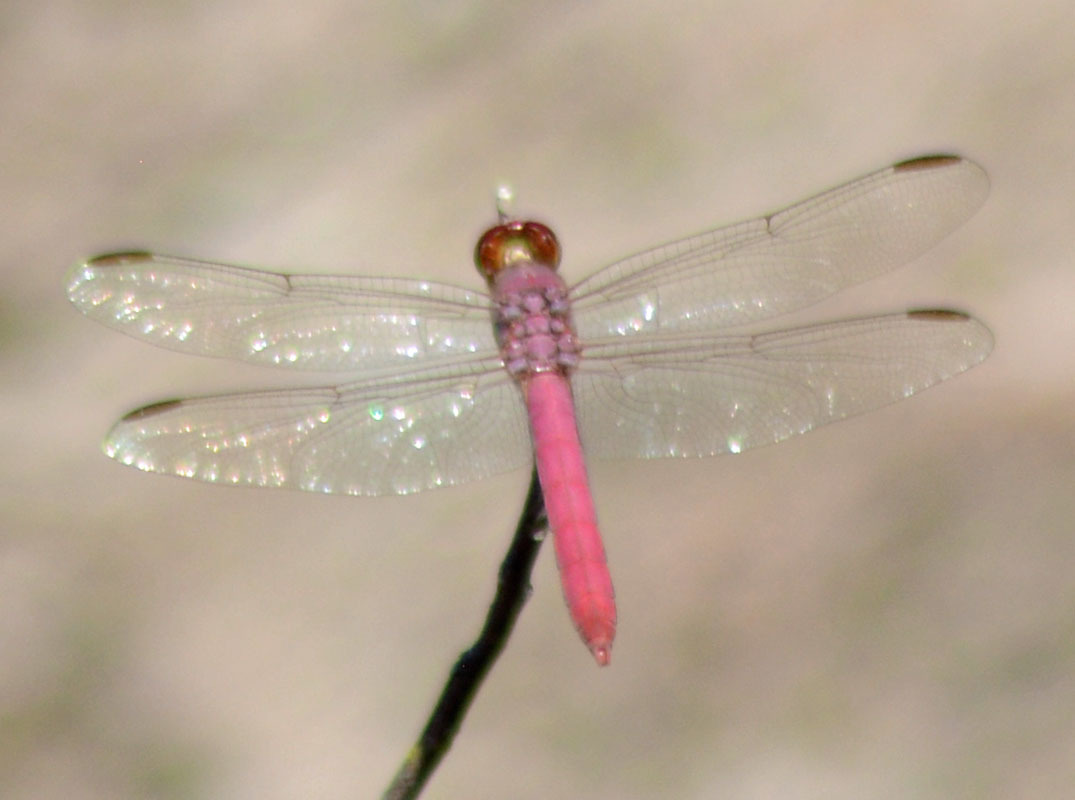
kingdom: Animalia
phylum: Arthropoda
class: Insecta
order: Odonata
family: Libellulidae
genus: Orthemis
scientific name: Orthemis discolor
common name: Carmine skimmer
